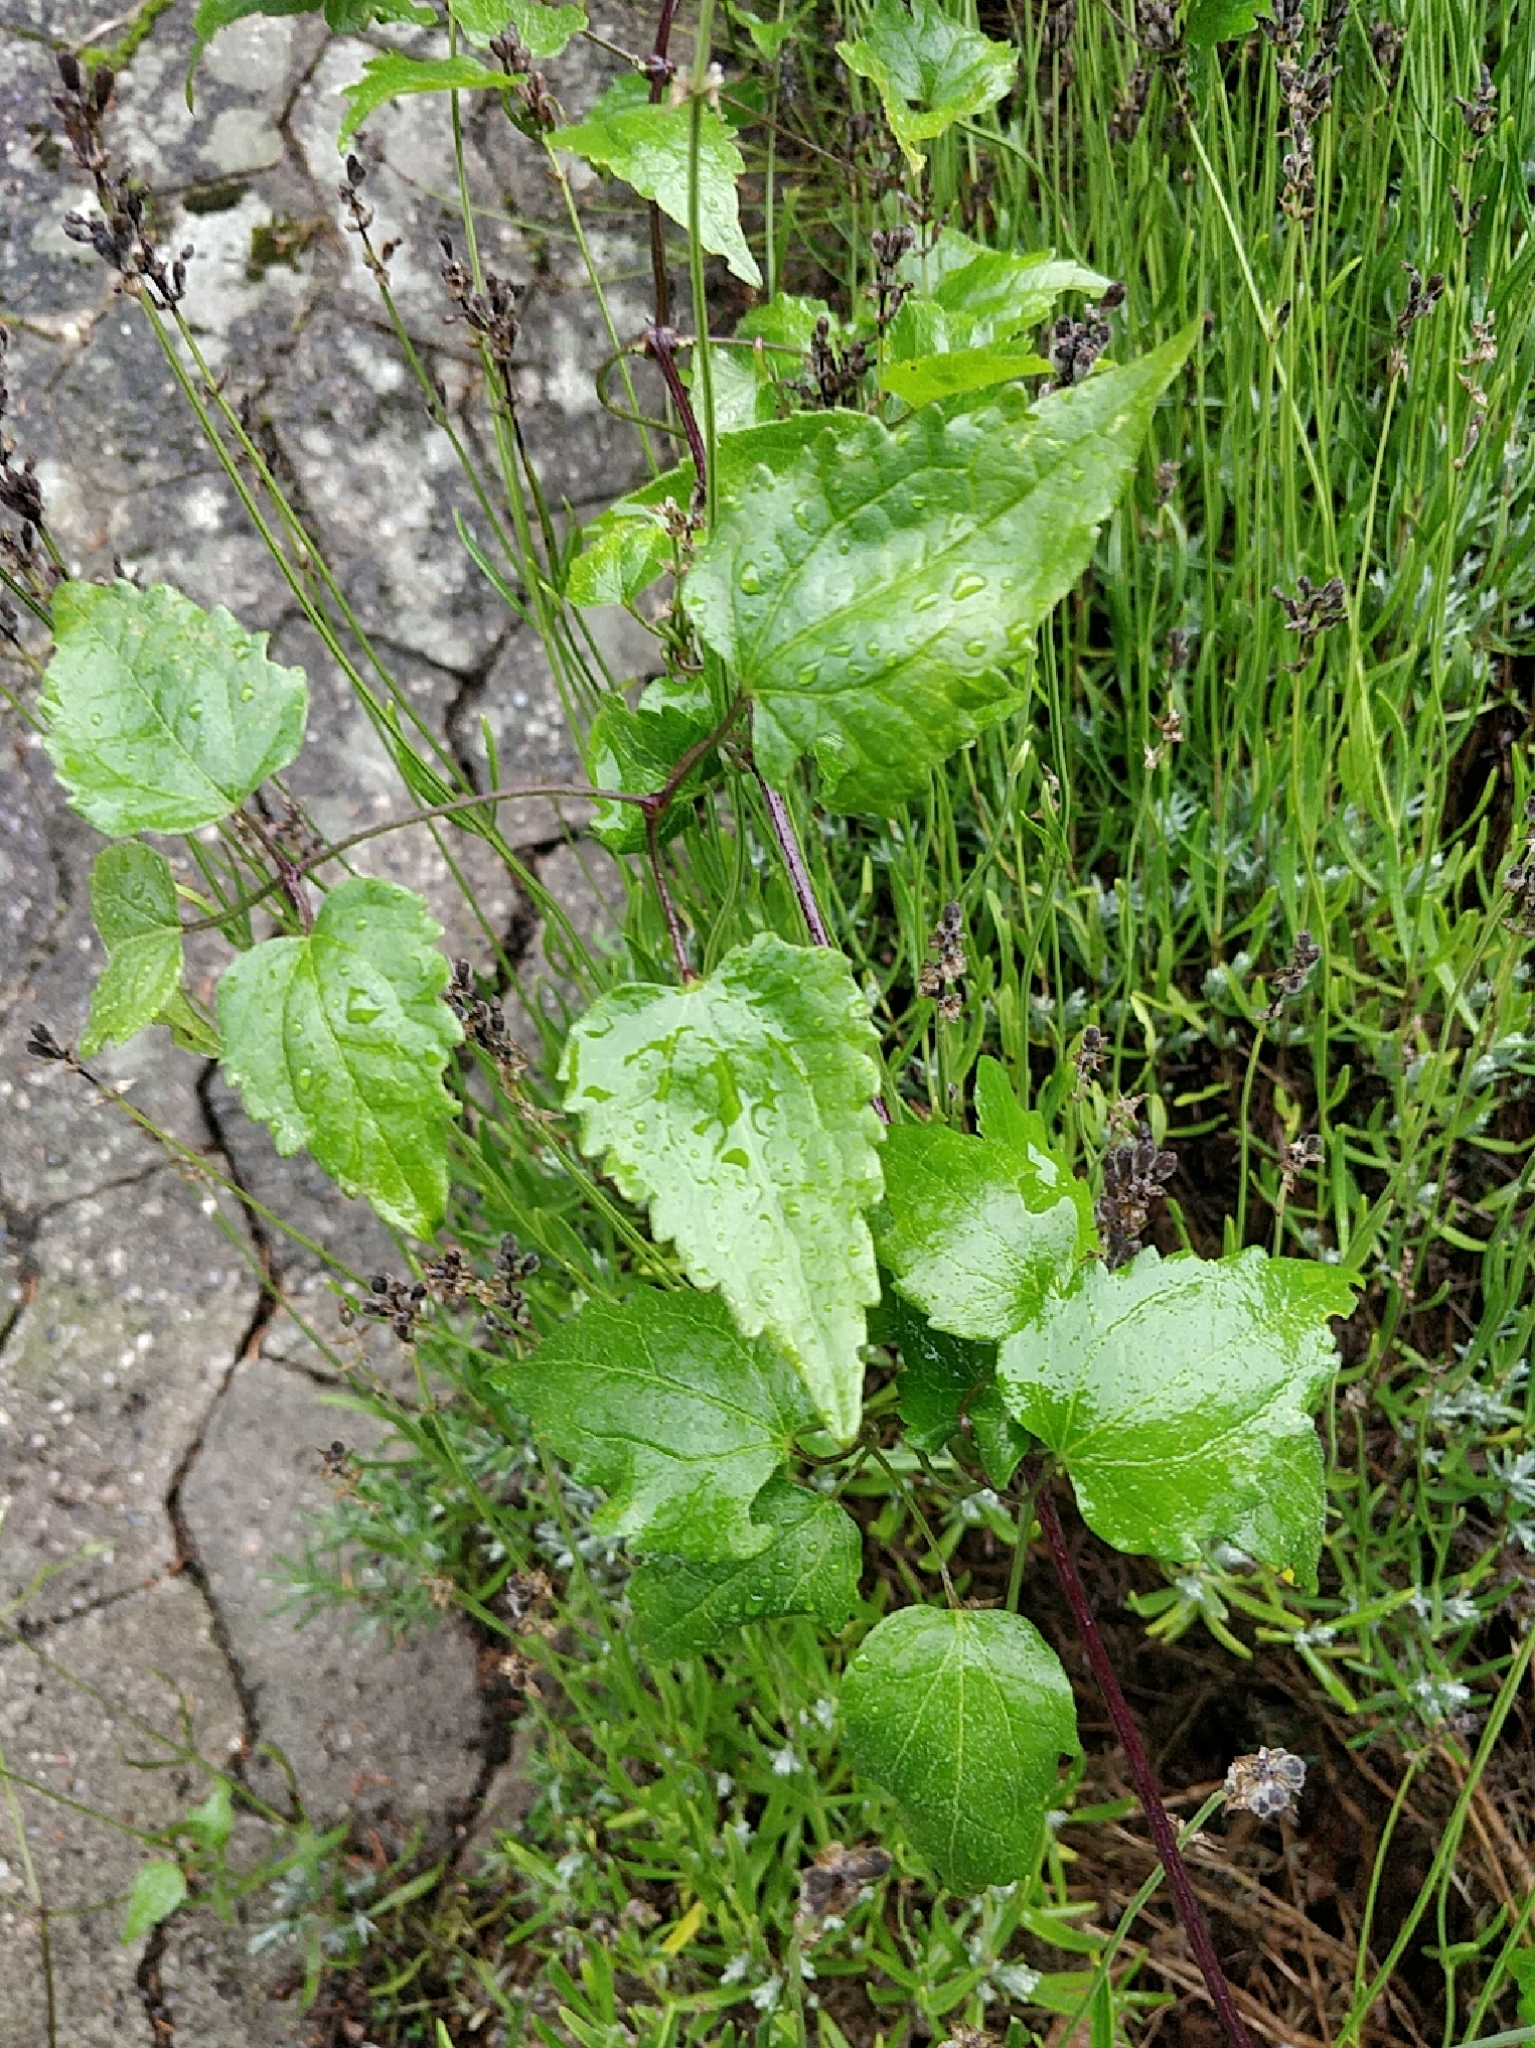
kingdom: Plantae
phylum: Tracheophyta
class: Magnoliopsida
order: Ranunculales
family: Ranunculaceae
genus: Clematis
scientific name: Clematis vitalba
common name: Evergreen clematis
